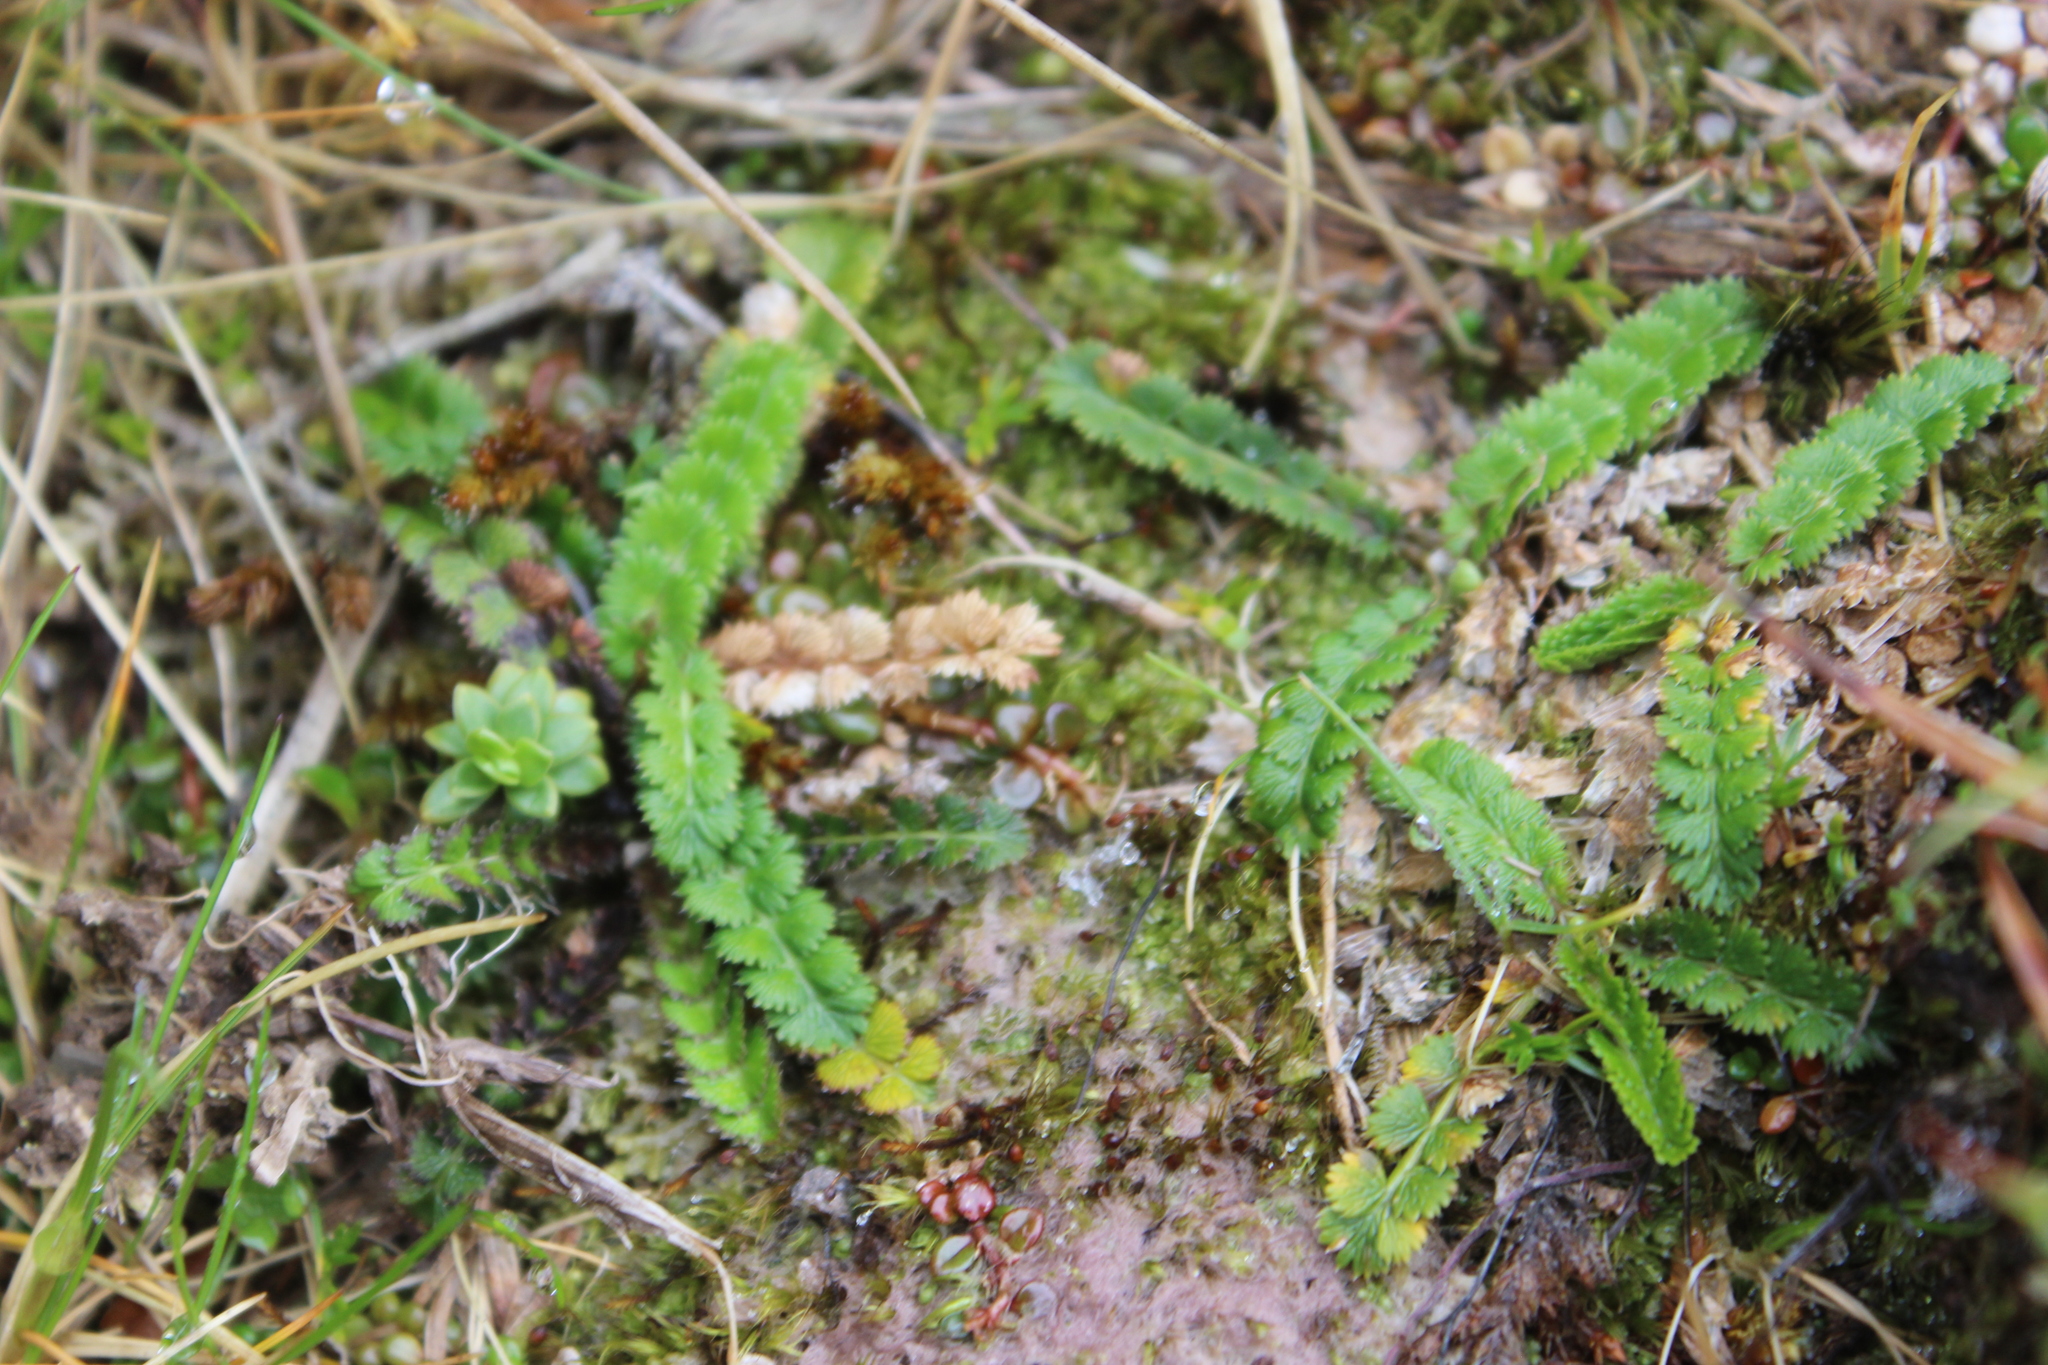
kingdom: Plantae
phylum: Tracheophyta
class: Magnoliopsida
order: Apiales
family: Apiaceae
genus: Anisotome
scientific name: Anisotome aromatica
